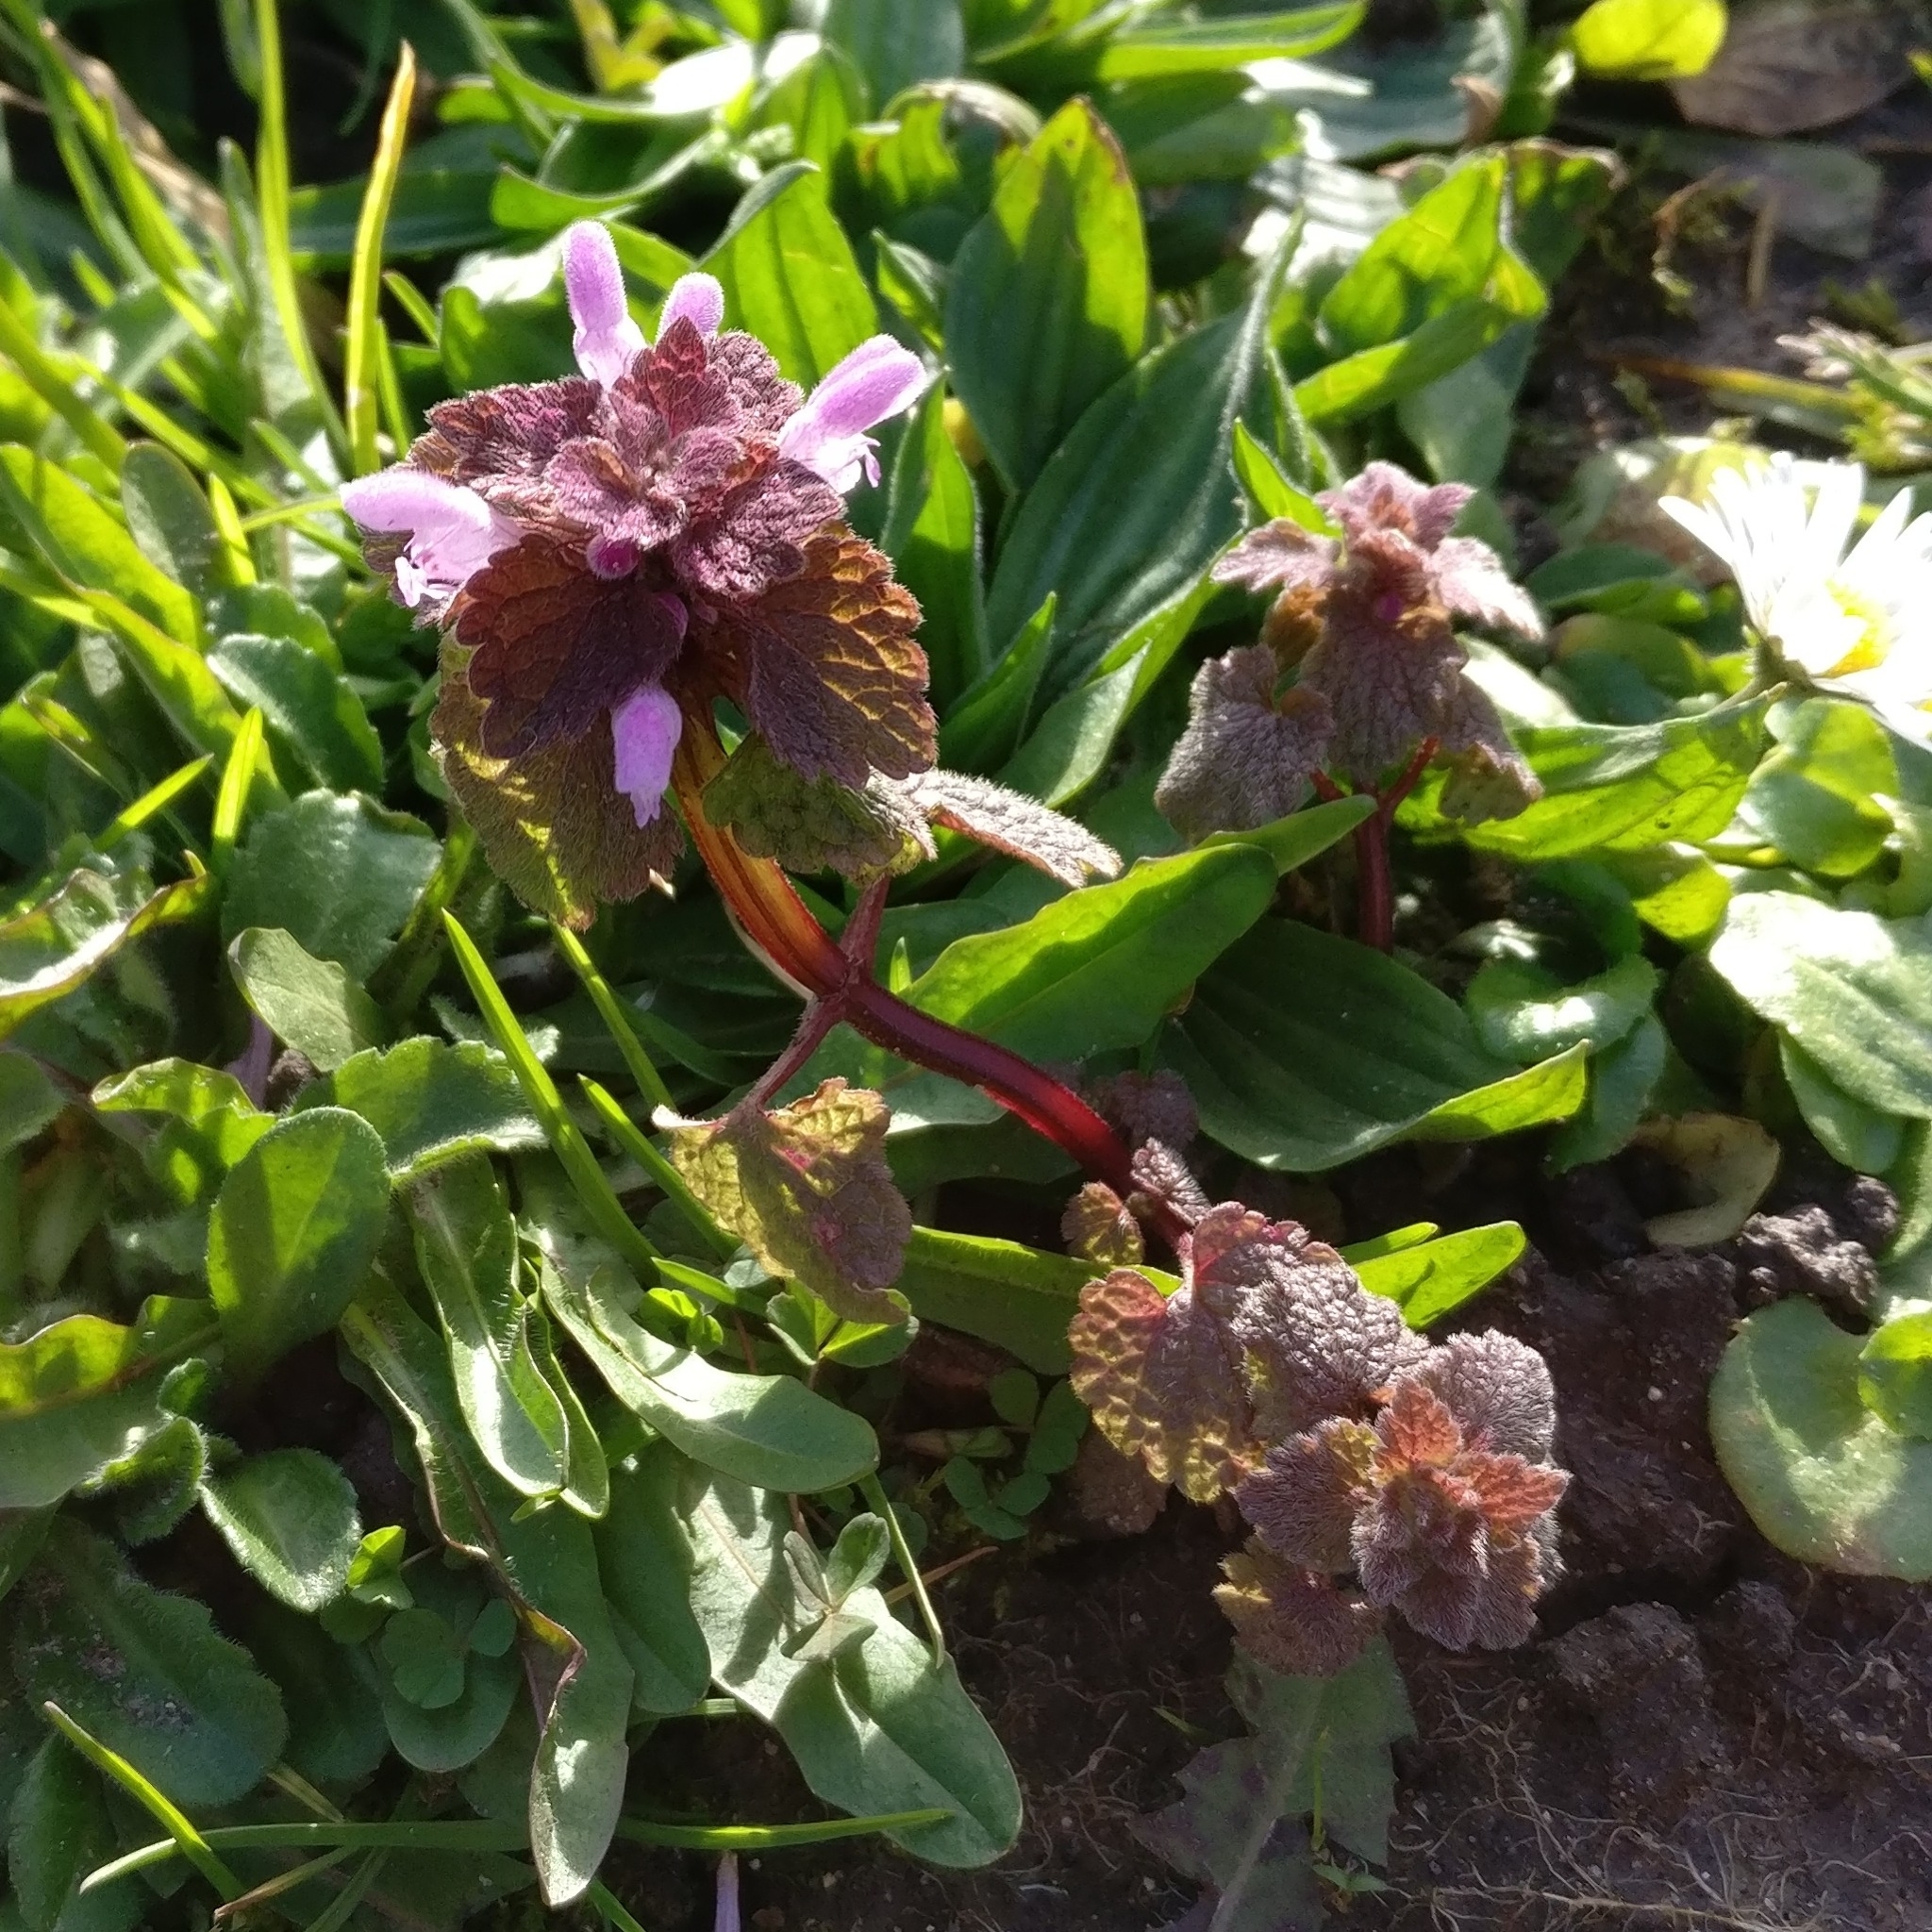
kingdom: Plantae
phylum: Tracheophyta
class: Magnoliopsida
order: Lamiales
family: Lamiaceae
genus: Lamium
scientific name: Lamium purpureum
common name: Red dead-nettle
